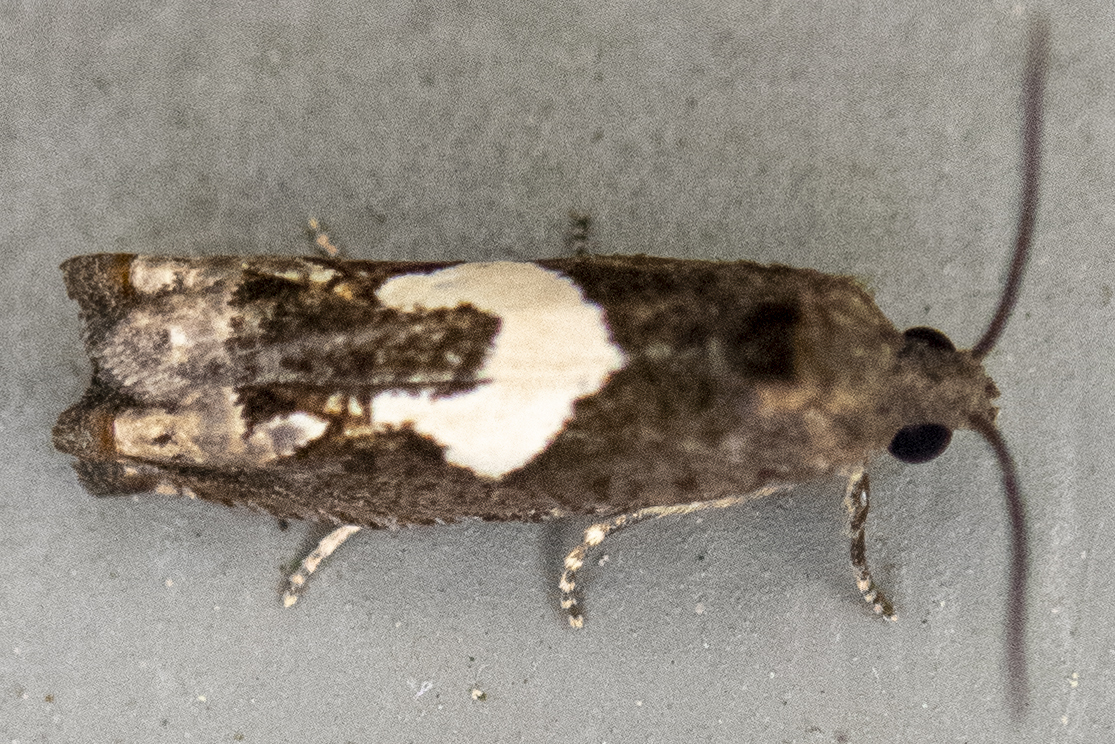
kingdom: Animalia
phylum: Arthropoda
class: Insecta
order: Lepidoptera
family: Tortricidae
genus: Epiblema
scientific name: Epiblema otiosana
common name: Bidens borer moth
